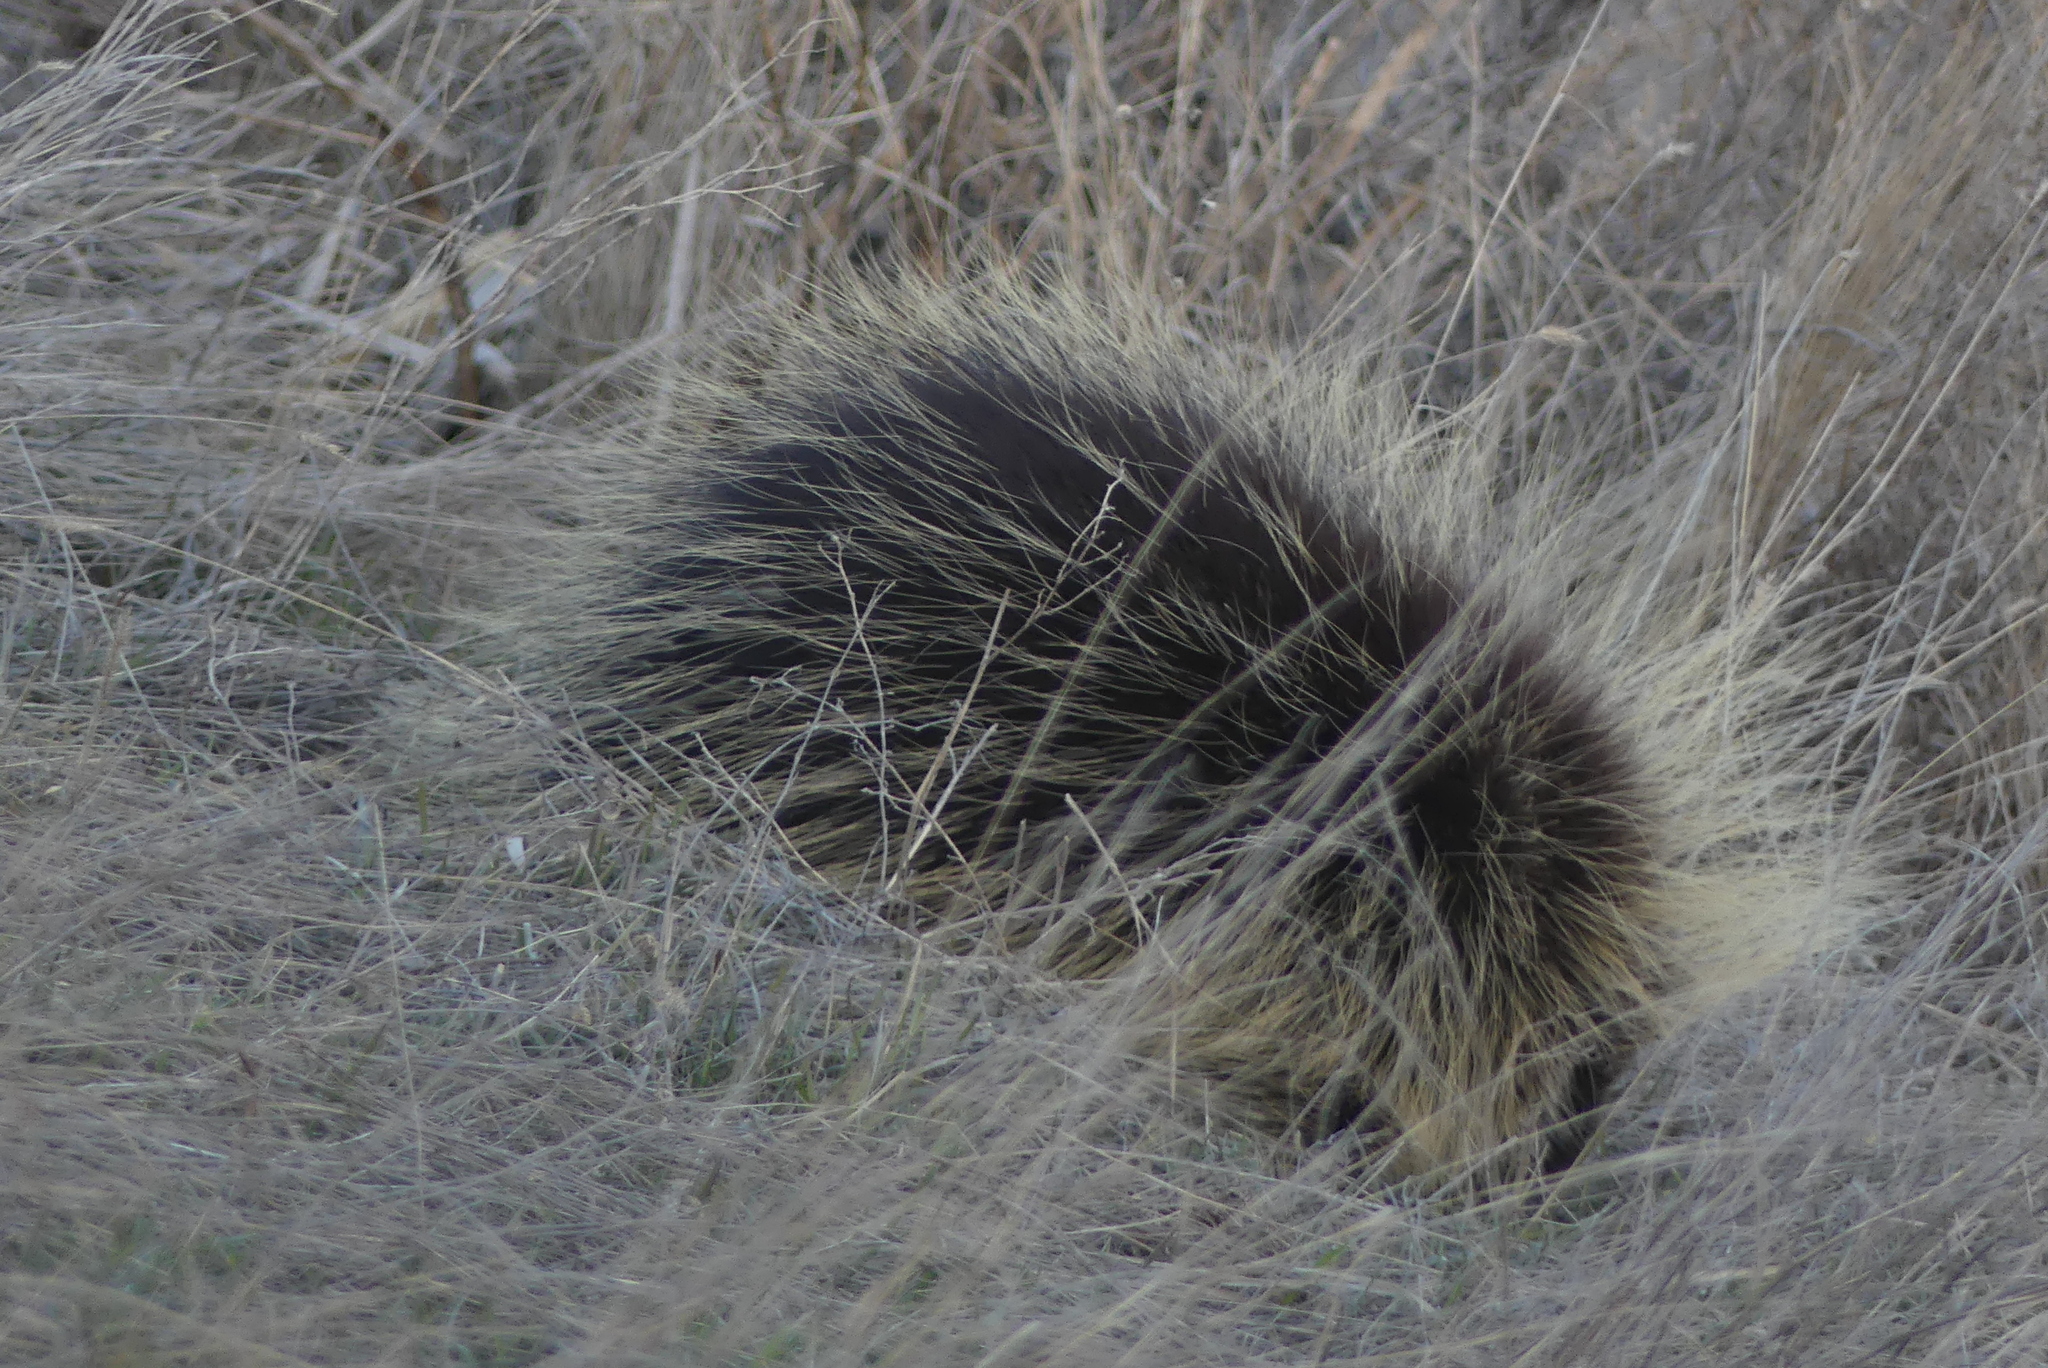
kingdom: Animalia
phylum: Chordata
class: Mammalia
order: Rodentia
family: Erethizontidae
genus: Erethizon
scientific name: Erethizon dorsatus
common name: North american porcupine
